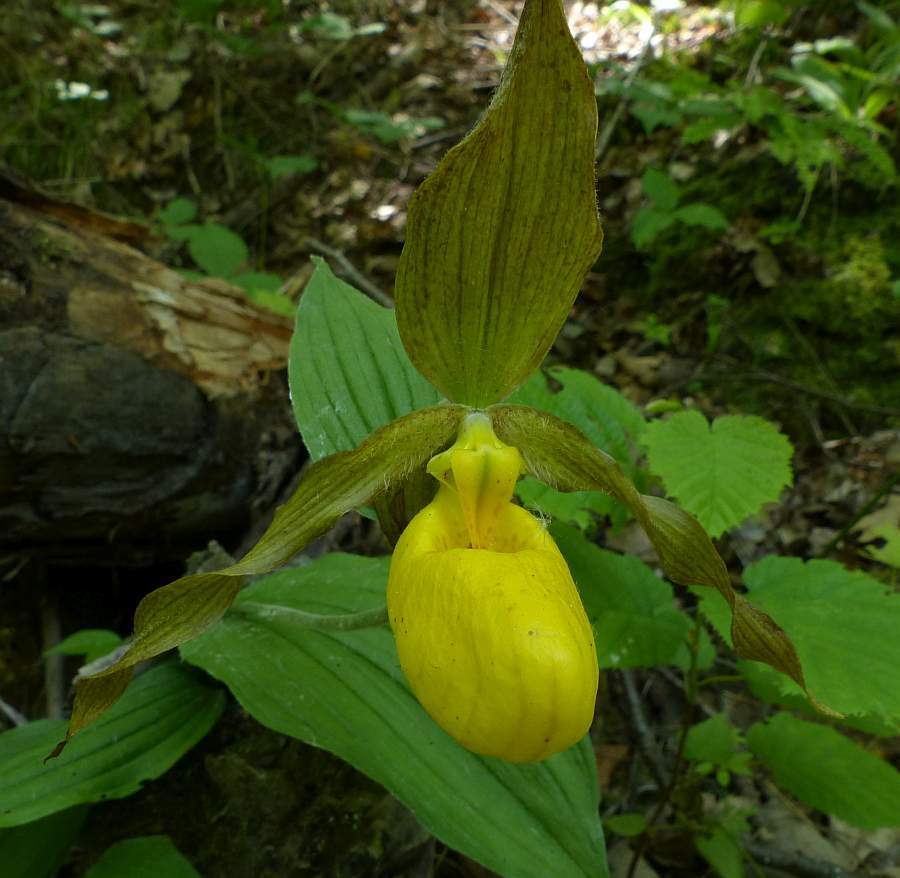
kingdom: Plantae
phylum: Tracheophyta
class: Liliopsida
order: Asparagales
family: Orchidaceae
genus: Cypripedium
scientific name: Cypripedium parviflorum
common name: American yellow lady's-slipper
